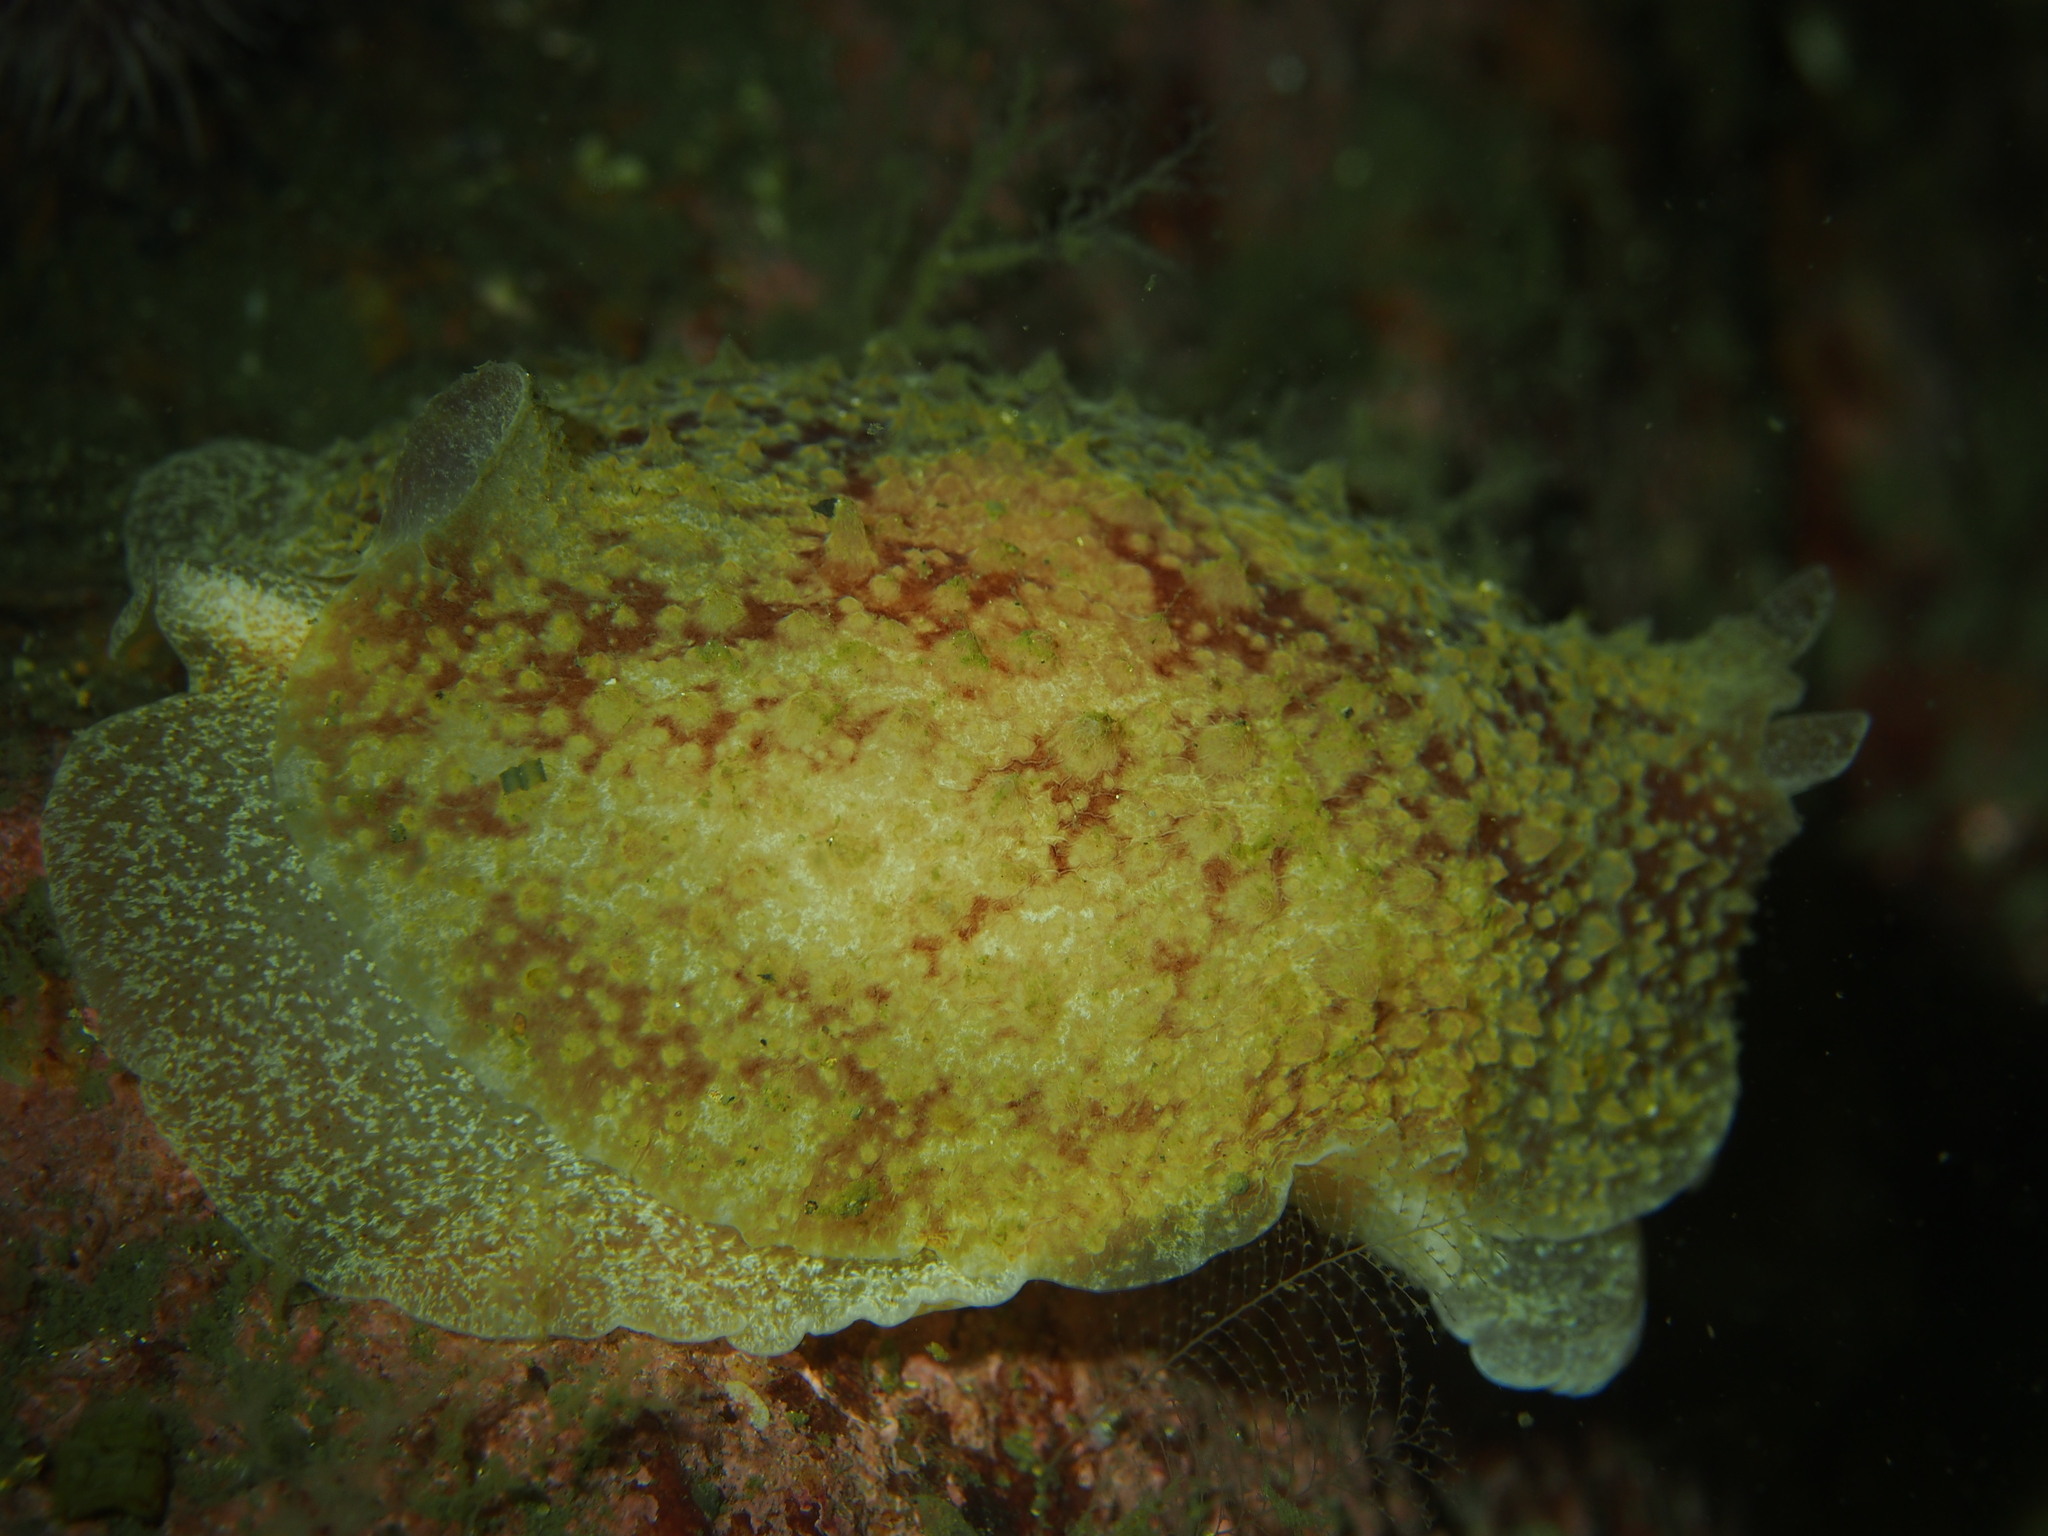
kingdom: Animalia
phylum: Mollusca
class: Gastropoda
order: Pleurobranchida
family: Pleurobranchidae
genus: Pleurobranchus
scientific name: Pleurobranchus membranaceus
